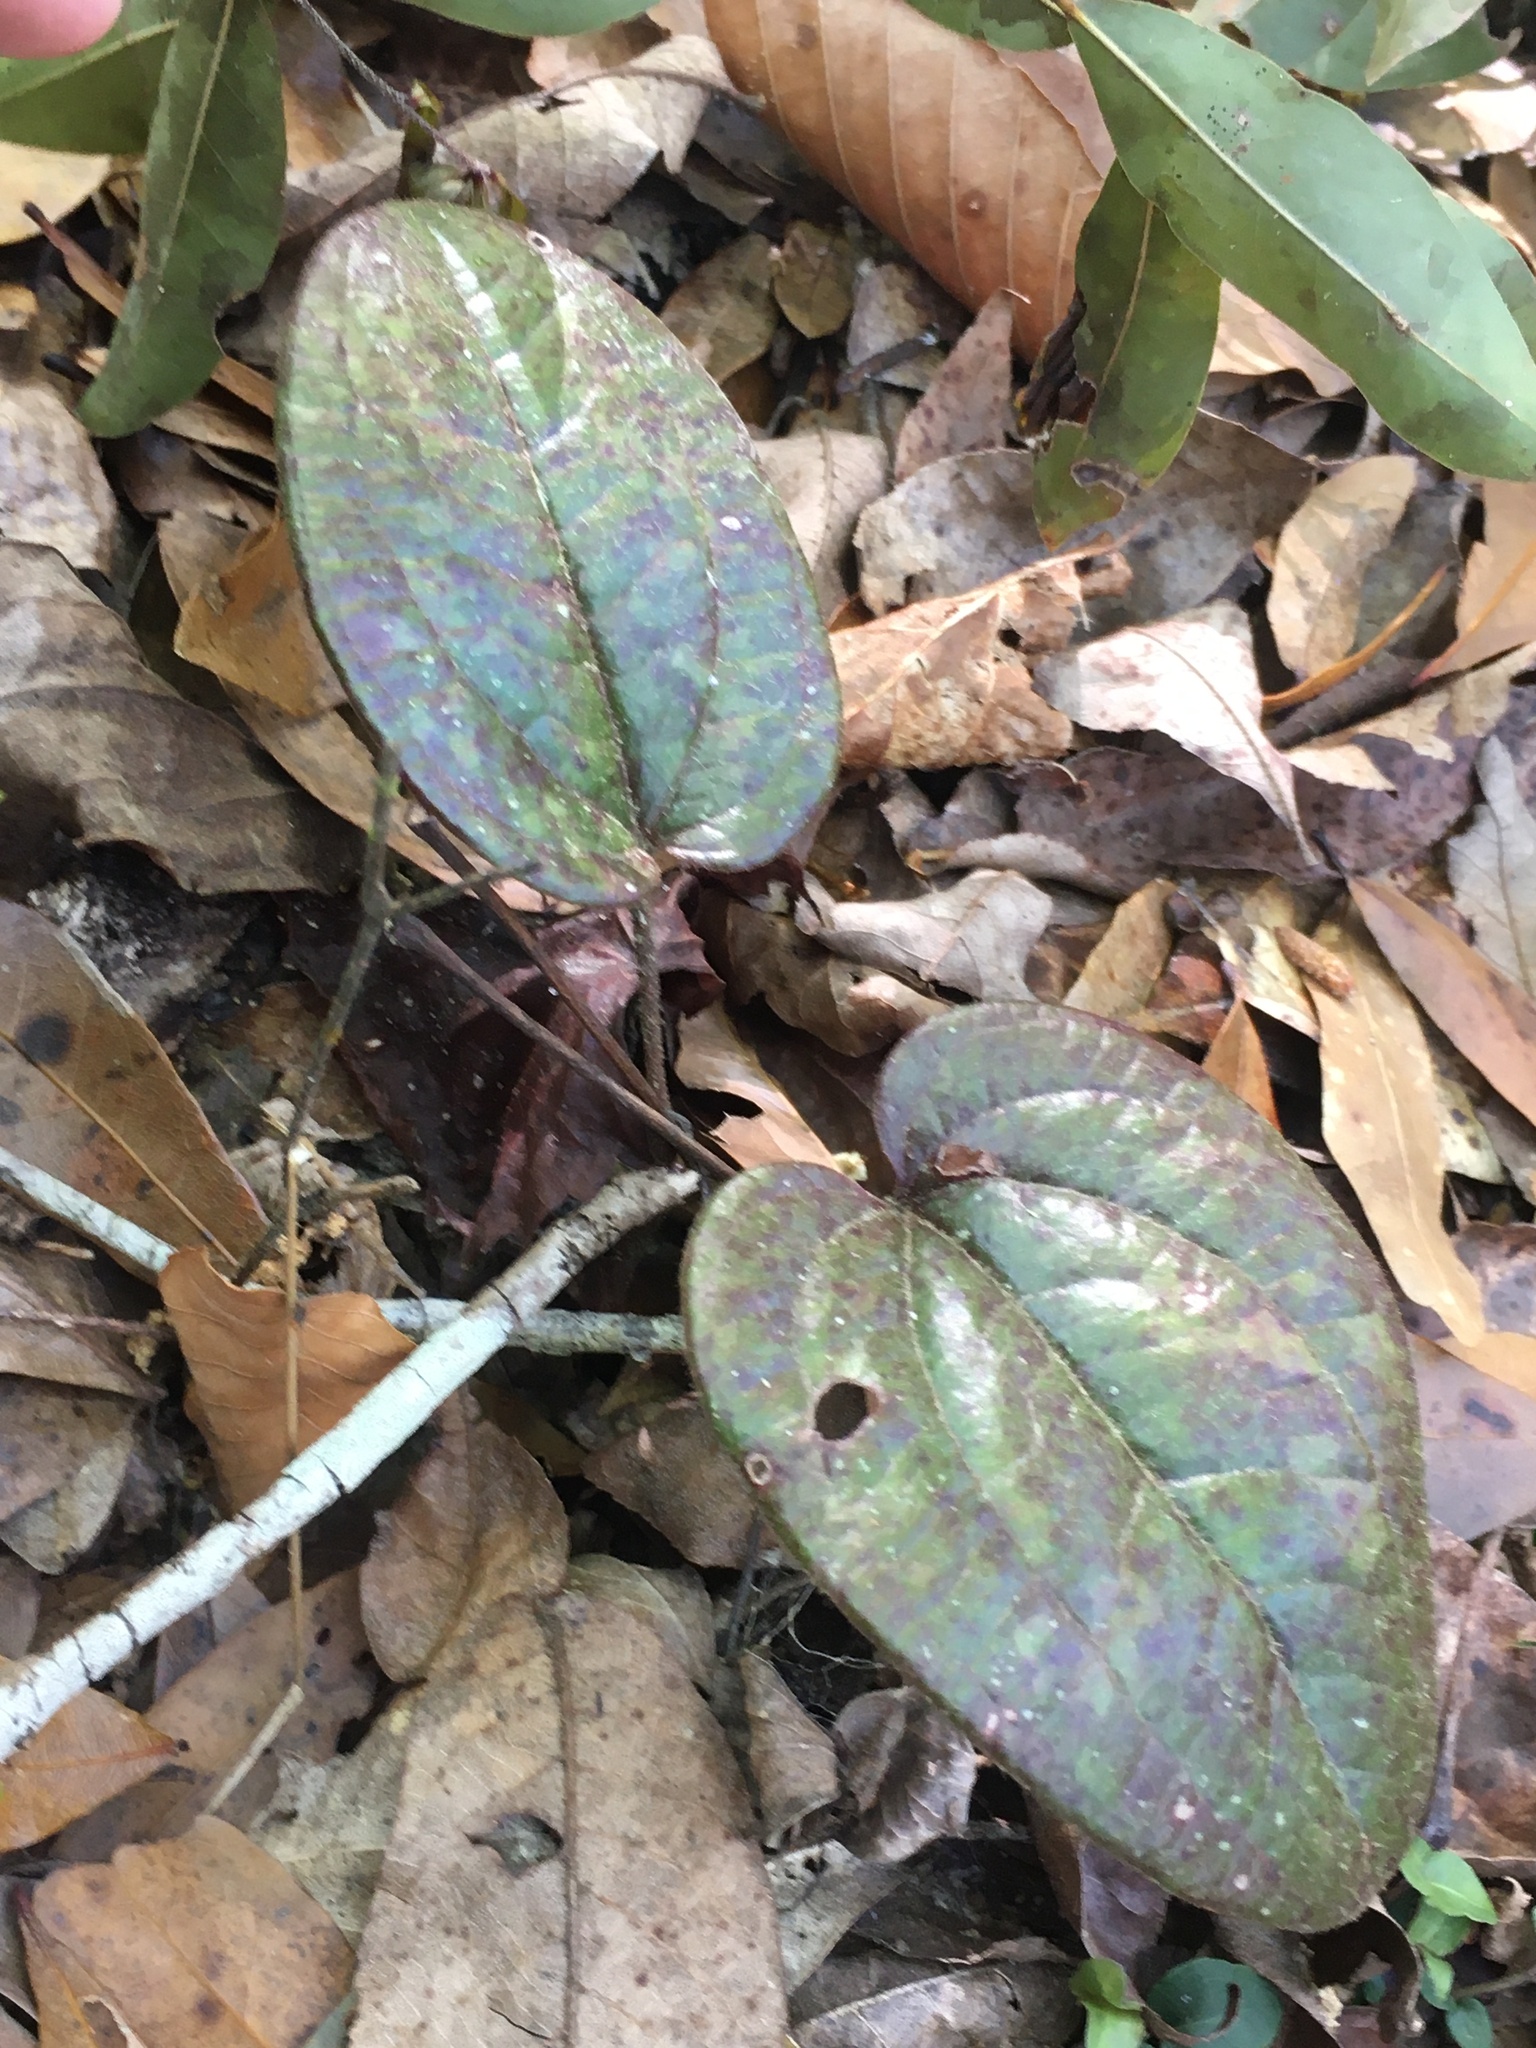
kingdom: Plantae
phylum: Tracheophyta
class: Liliopsida
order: Liliales
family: Smilacaceae
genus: Smilax
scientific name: Smilax pumila
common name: Sarsaparilla-vine
